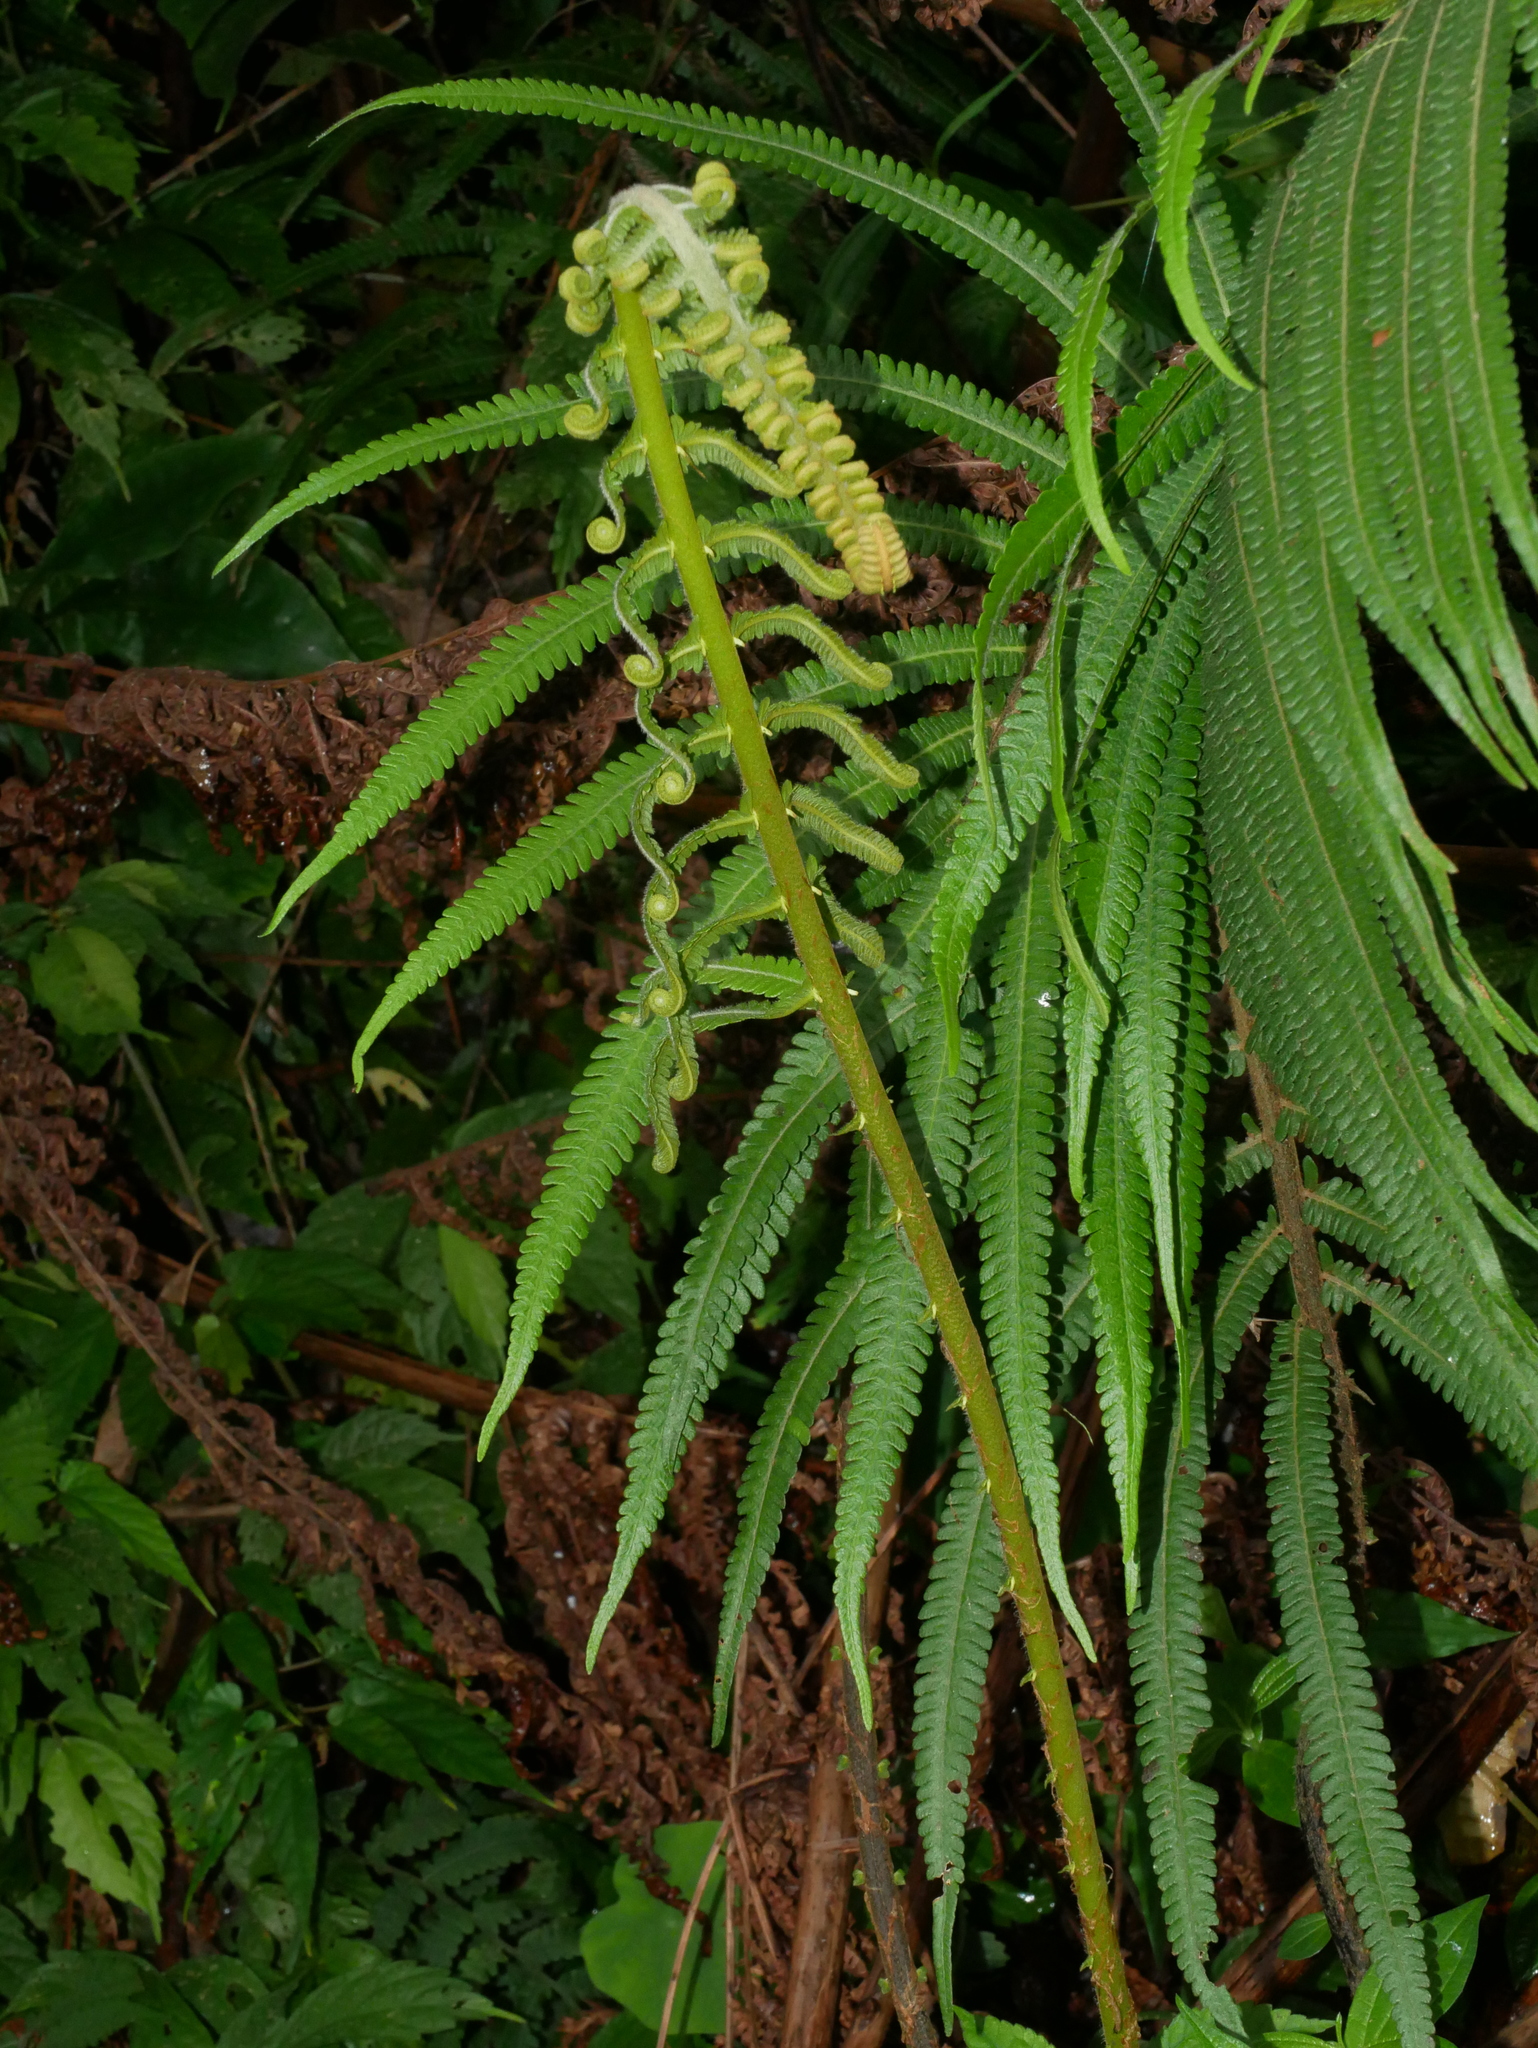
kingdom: Plantae
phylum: Tracheophyta
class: Polypodiopsida
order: Polypodiales
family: Thelypteridaceae
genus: Sphaerostephanos
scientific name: Sphaerostephanos taiwanensis
